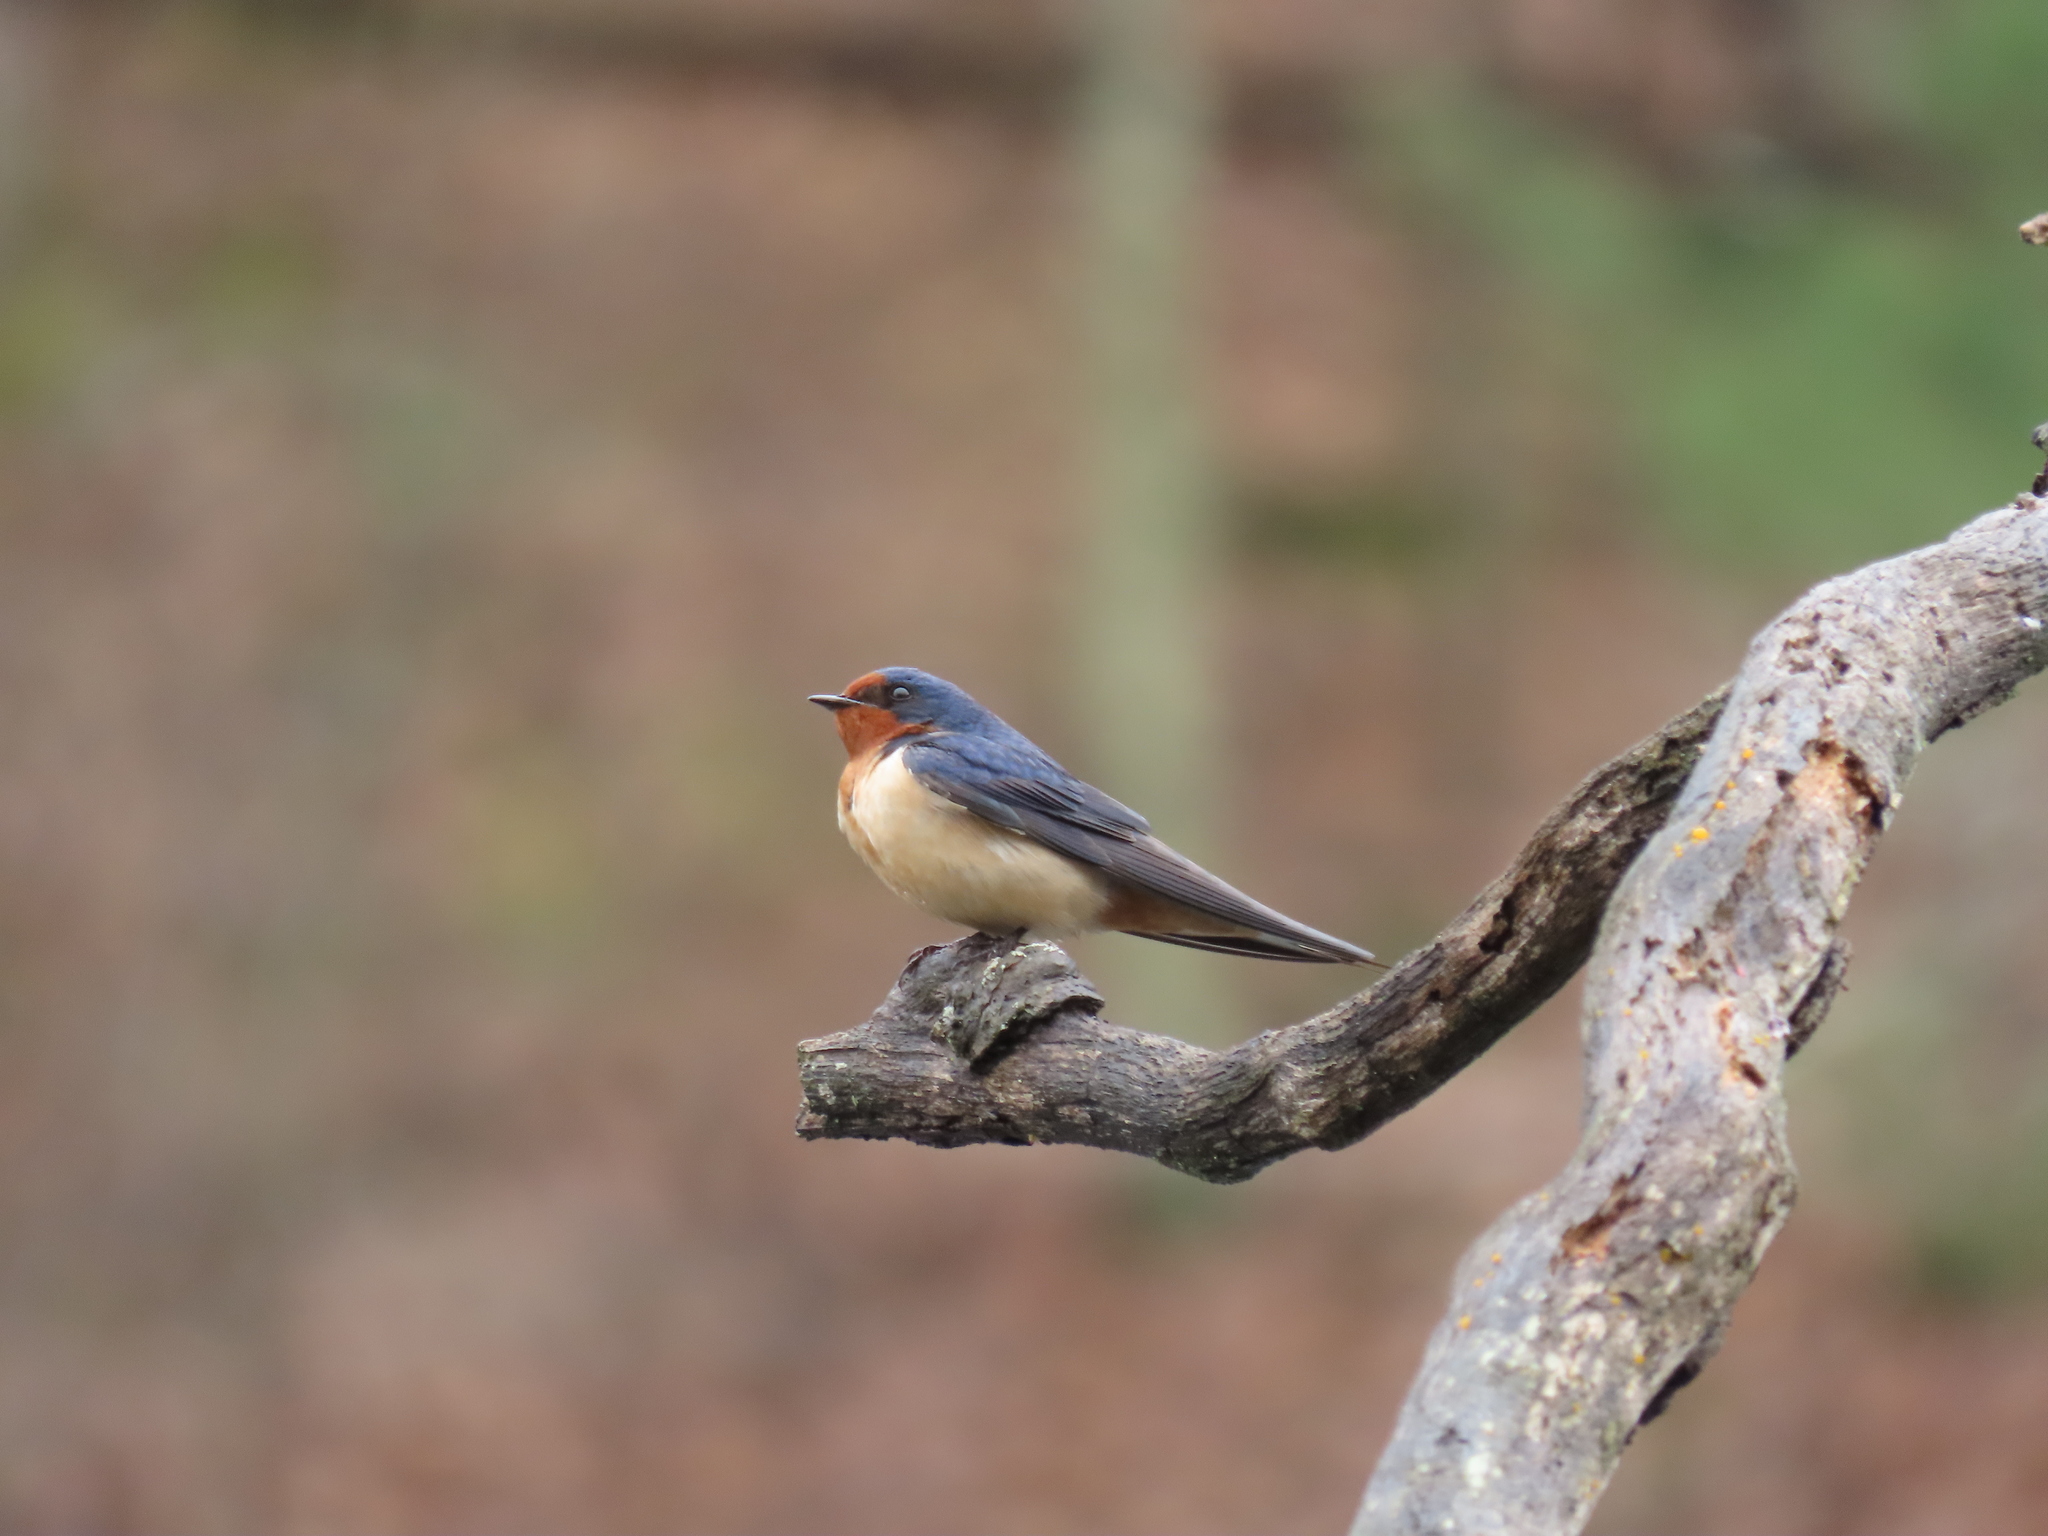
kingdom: Animalia
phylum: Chordata
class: Aves
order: Passeriformes
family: Hirundinidae
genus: Hirundo
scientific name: Hirundo rustica
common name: Barn swallow
